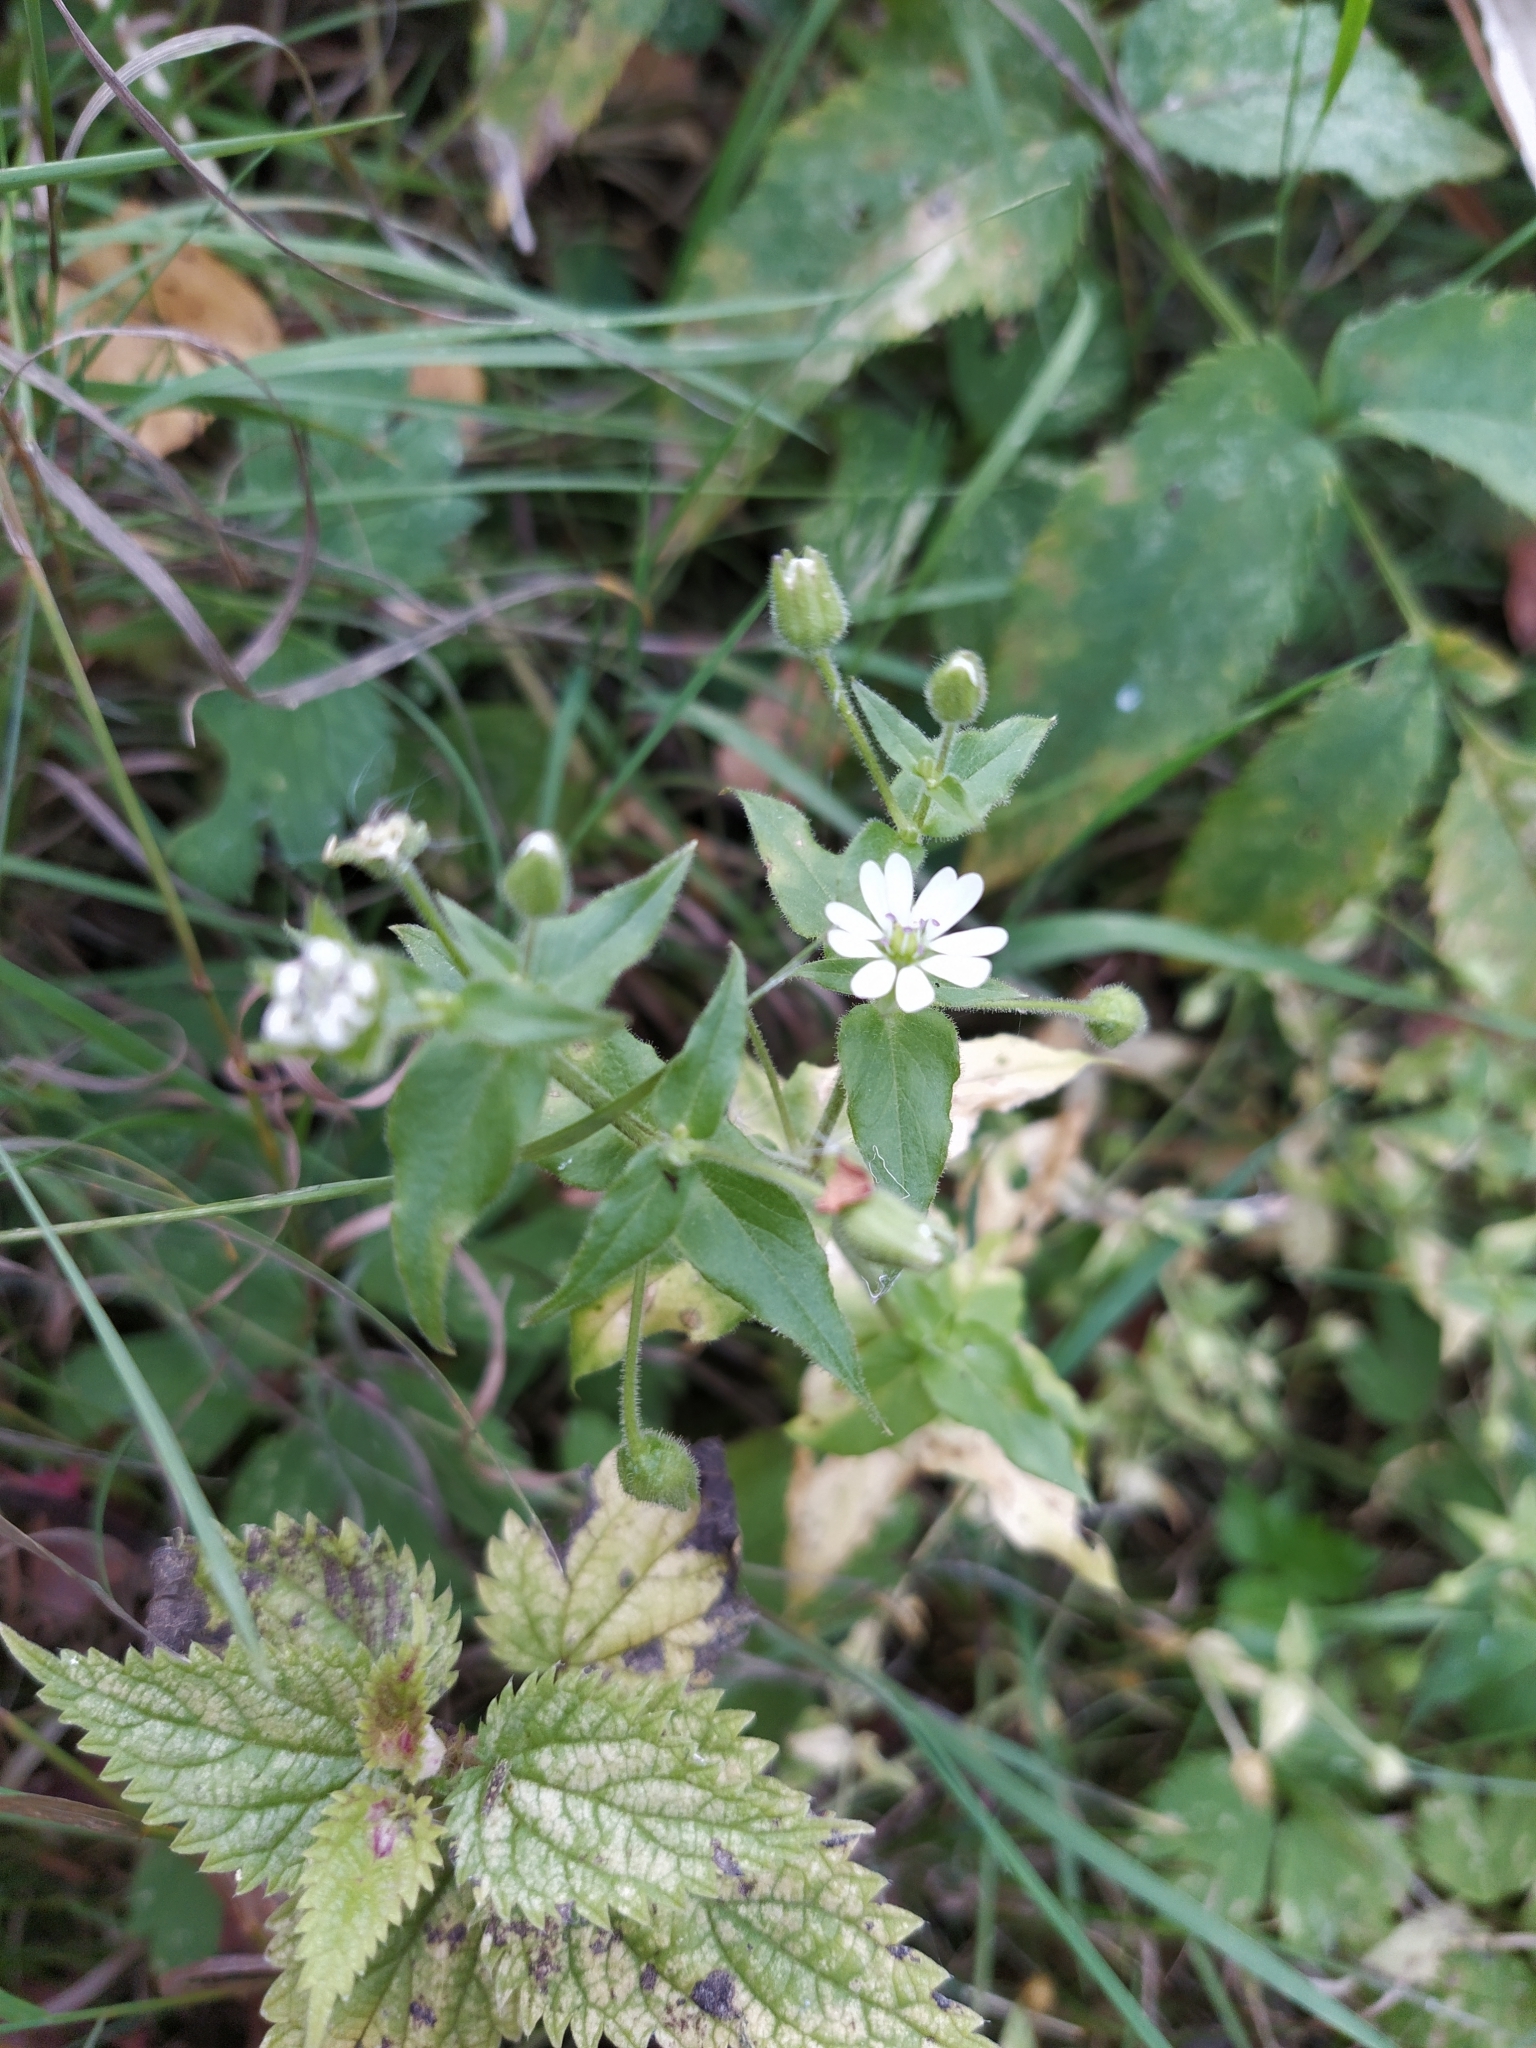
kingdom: Plantae
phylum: Tracheophyta
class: Magnoliopsida
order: Caryophyllales
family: Caryophyllaceae
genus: Stellaria
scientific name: Stellaria aquatica
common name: Water chickweed
